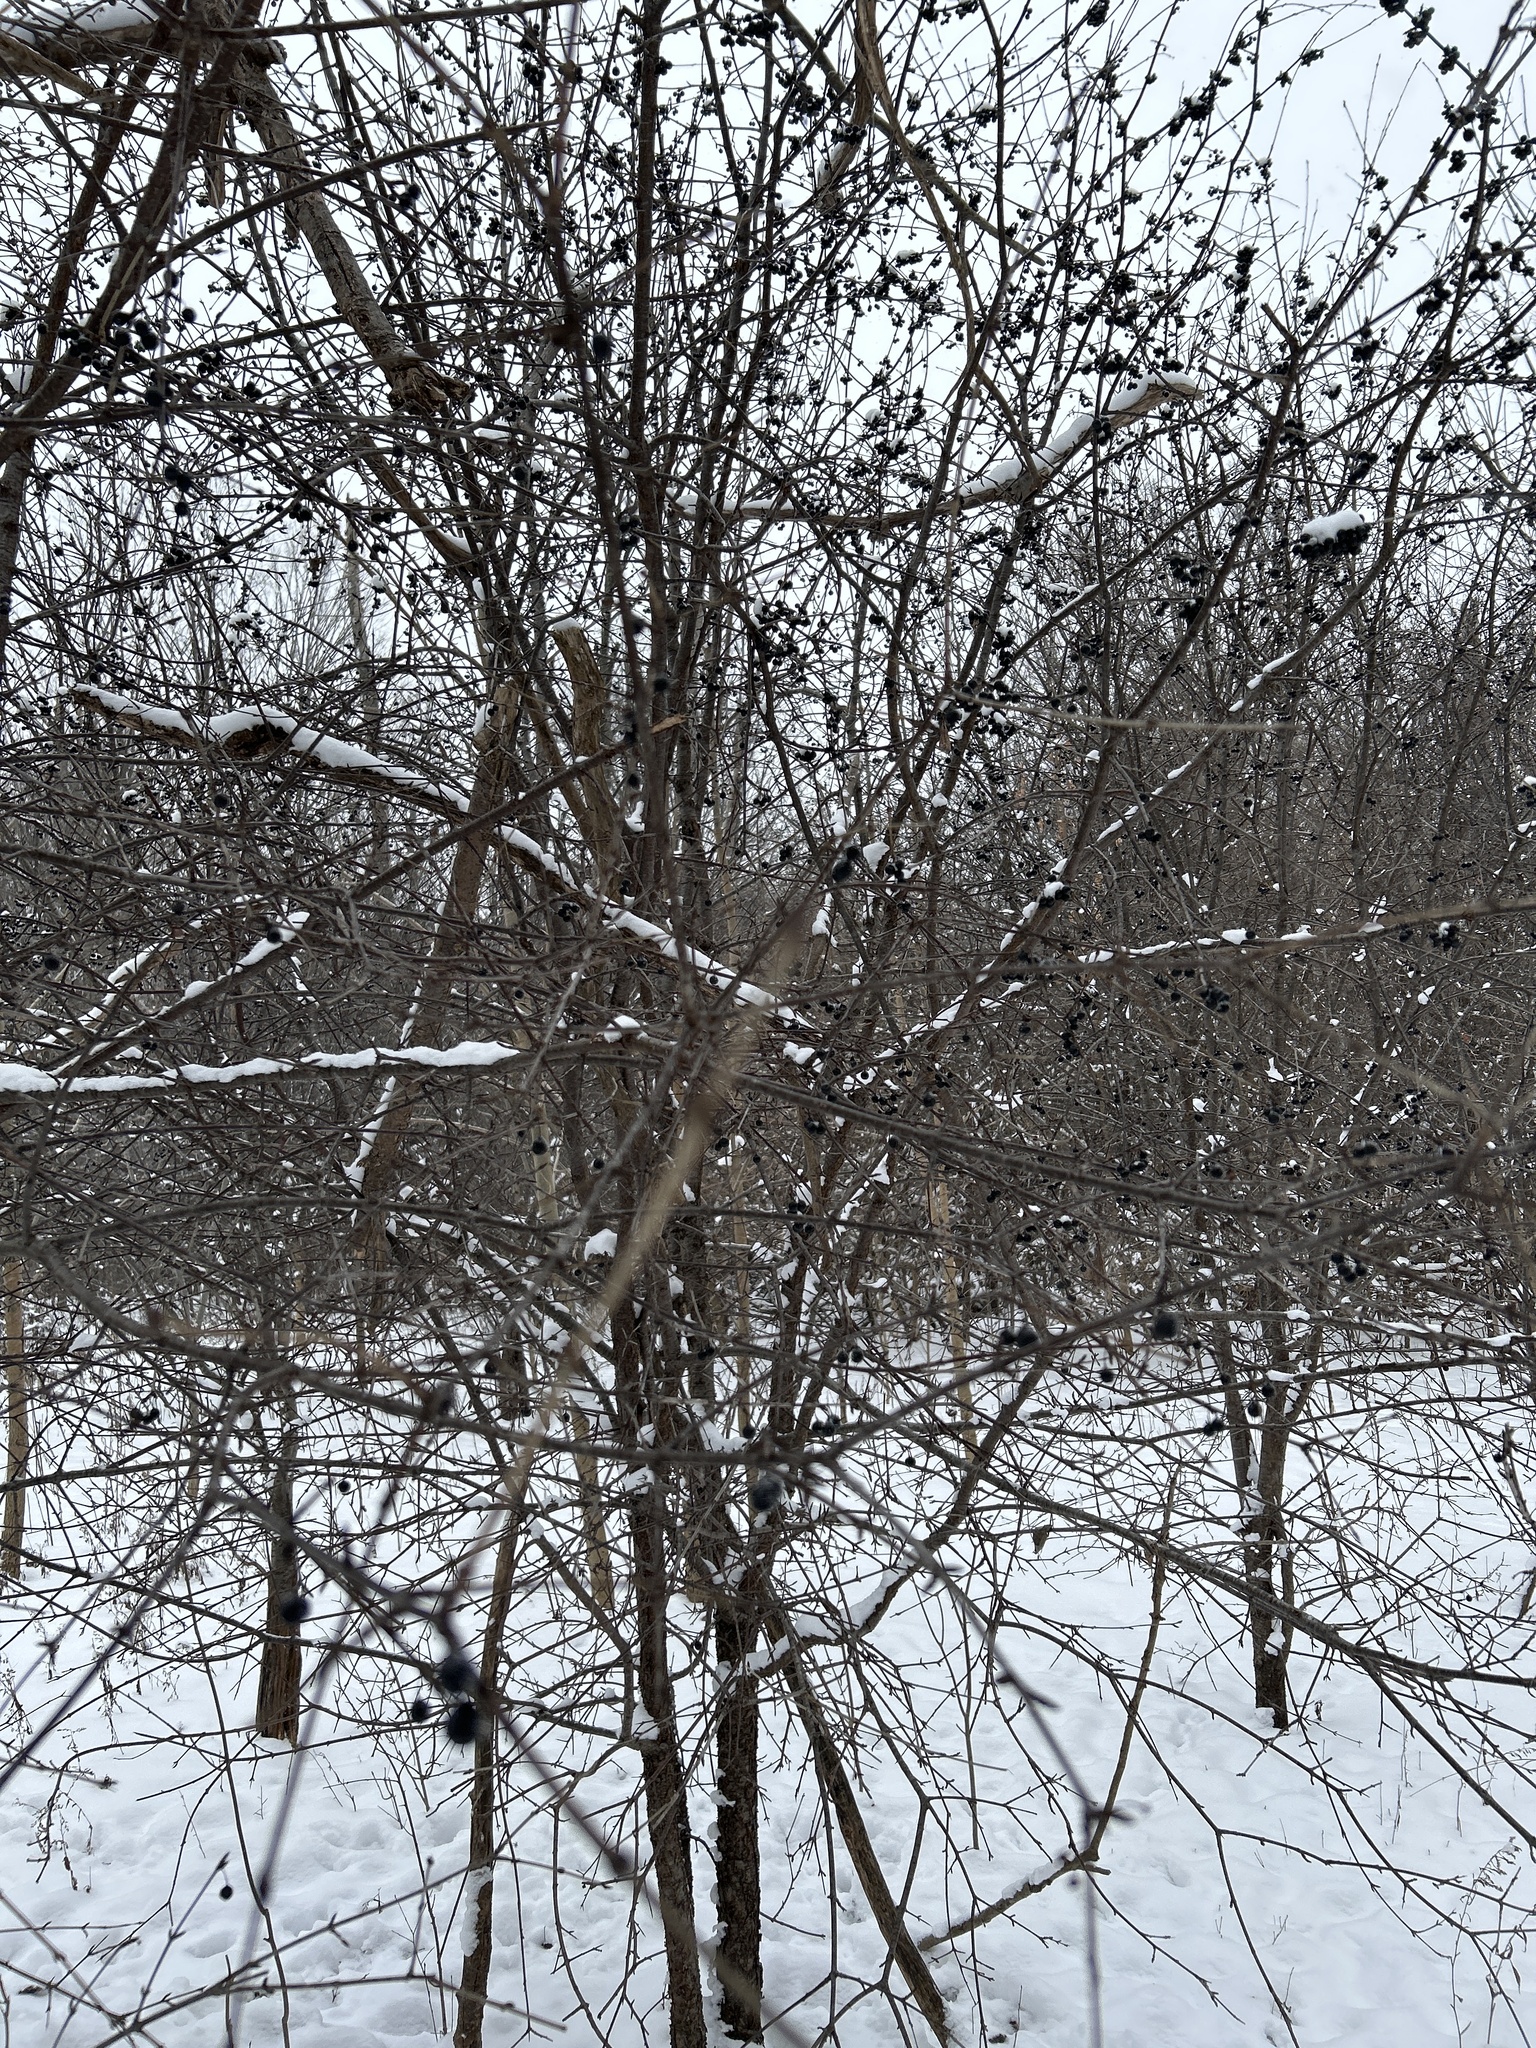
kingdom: Plantae
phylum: Tracheophyta
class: Magnoliopsida
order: Rosales
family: Rhamnaceae
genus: Rhamnus
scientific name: Rhamnus cathartica
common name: Common buckthorn
